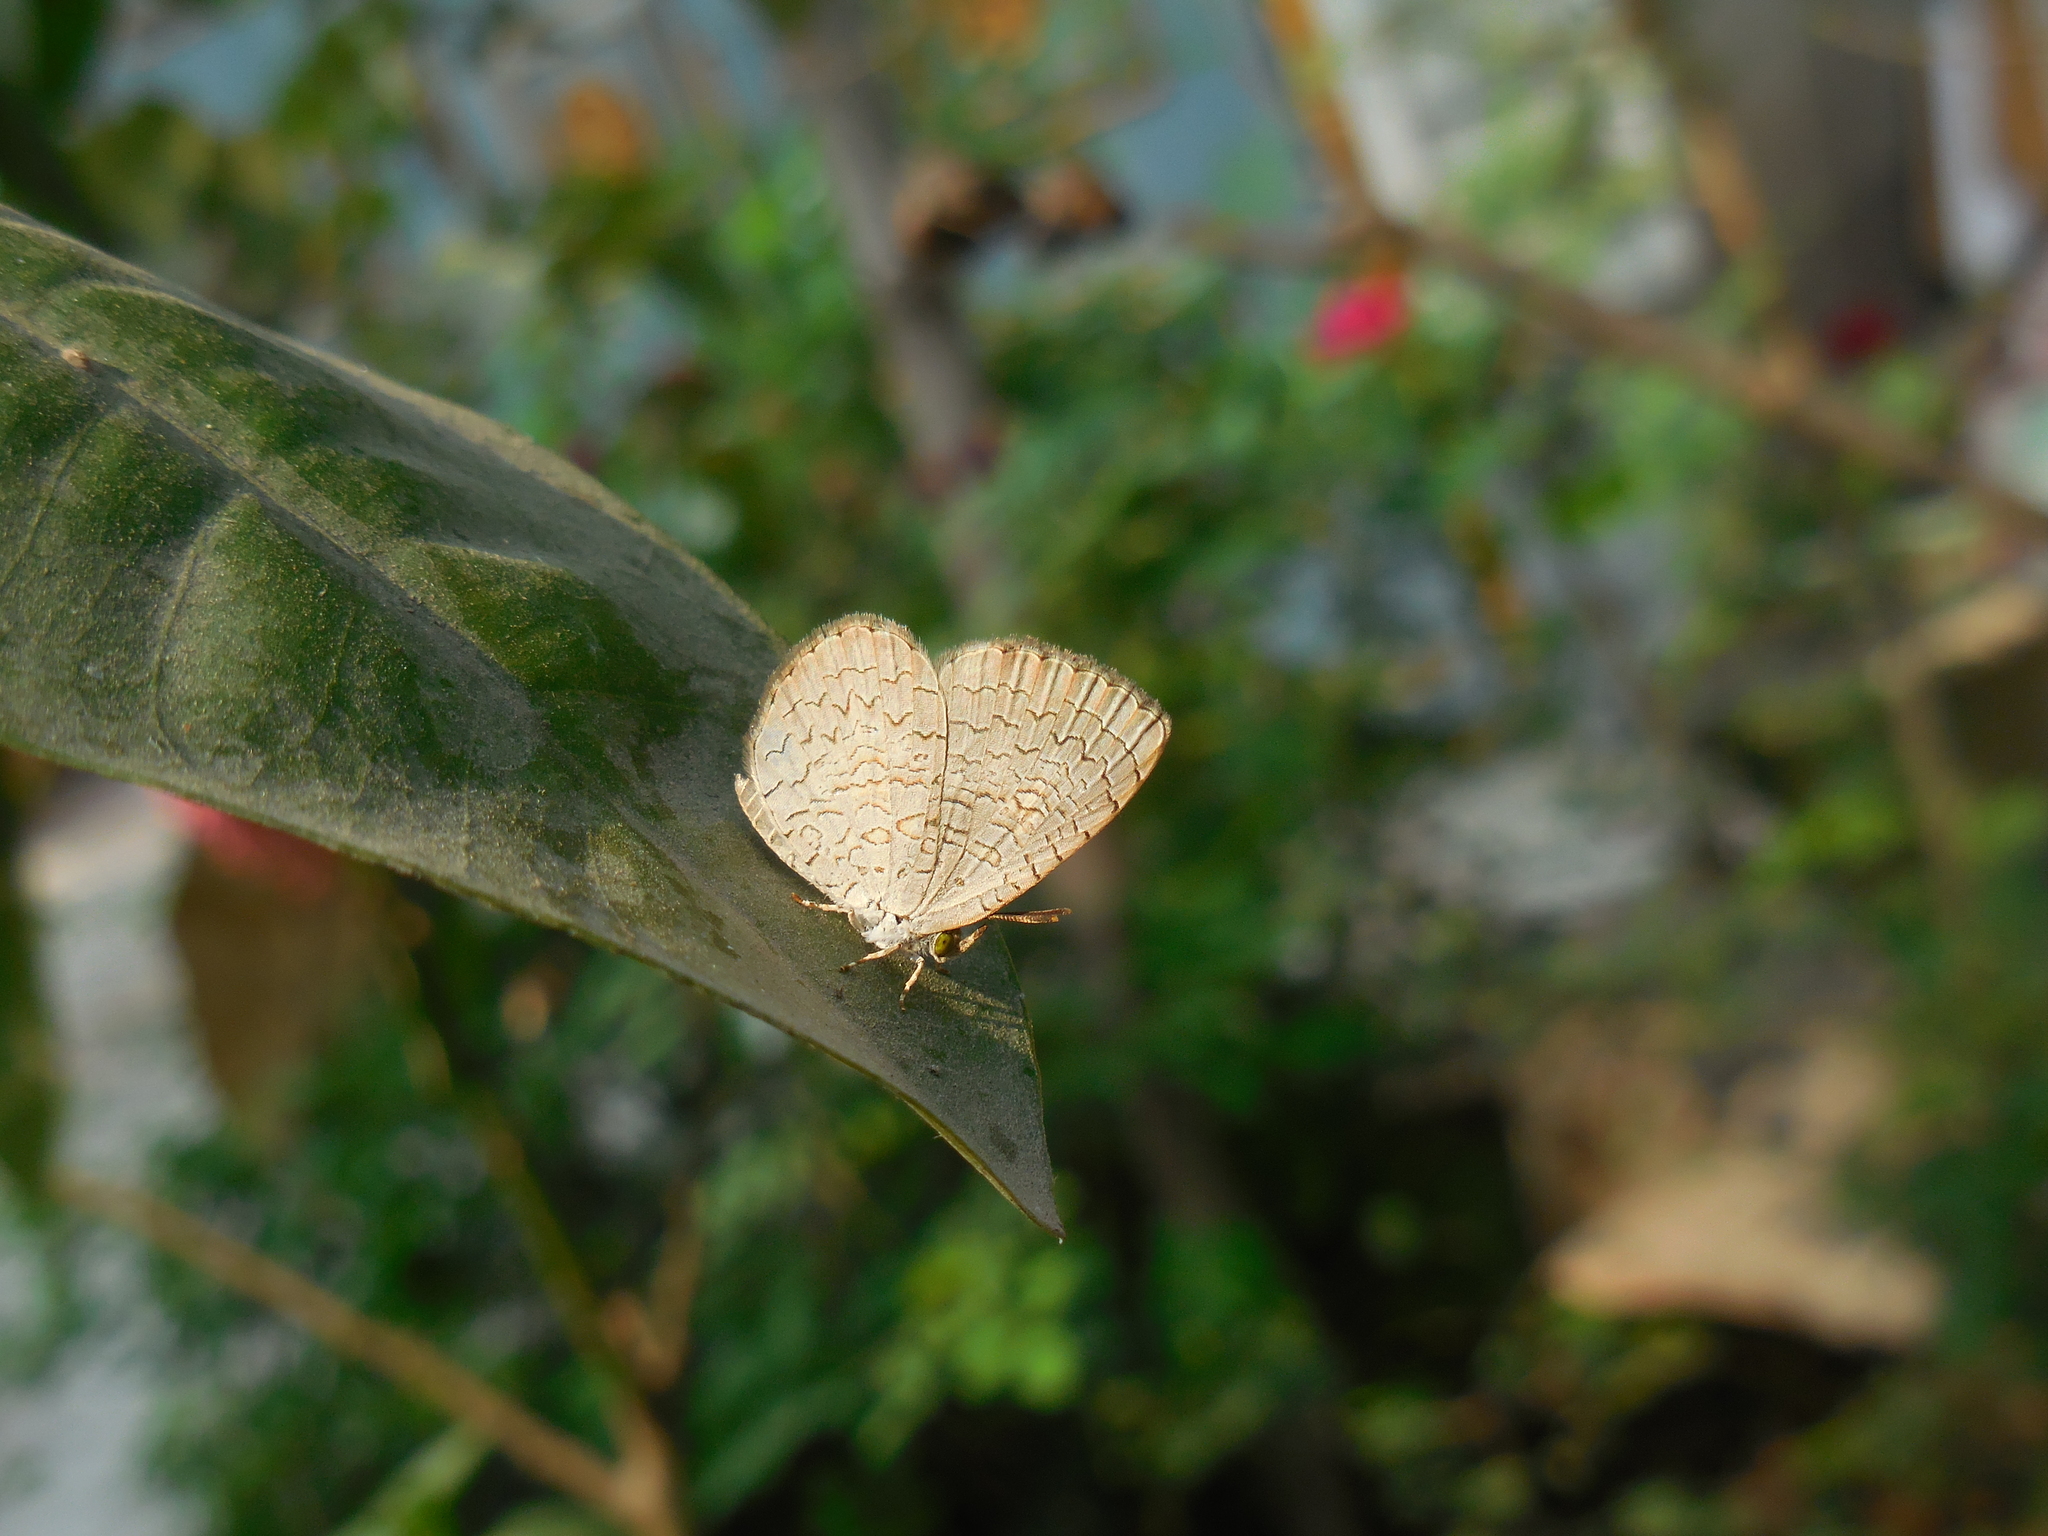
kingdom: Animalia
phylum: Arthropoda
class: Insecta
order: Lepidoptera
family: Lycaenidae
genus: Spalgis
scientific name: Spalgis epius
